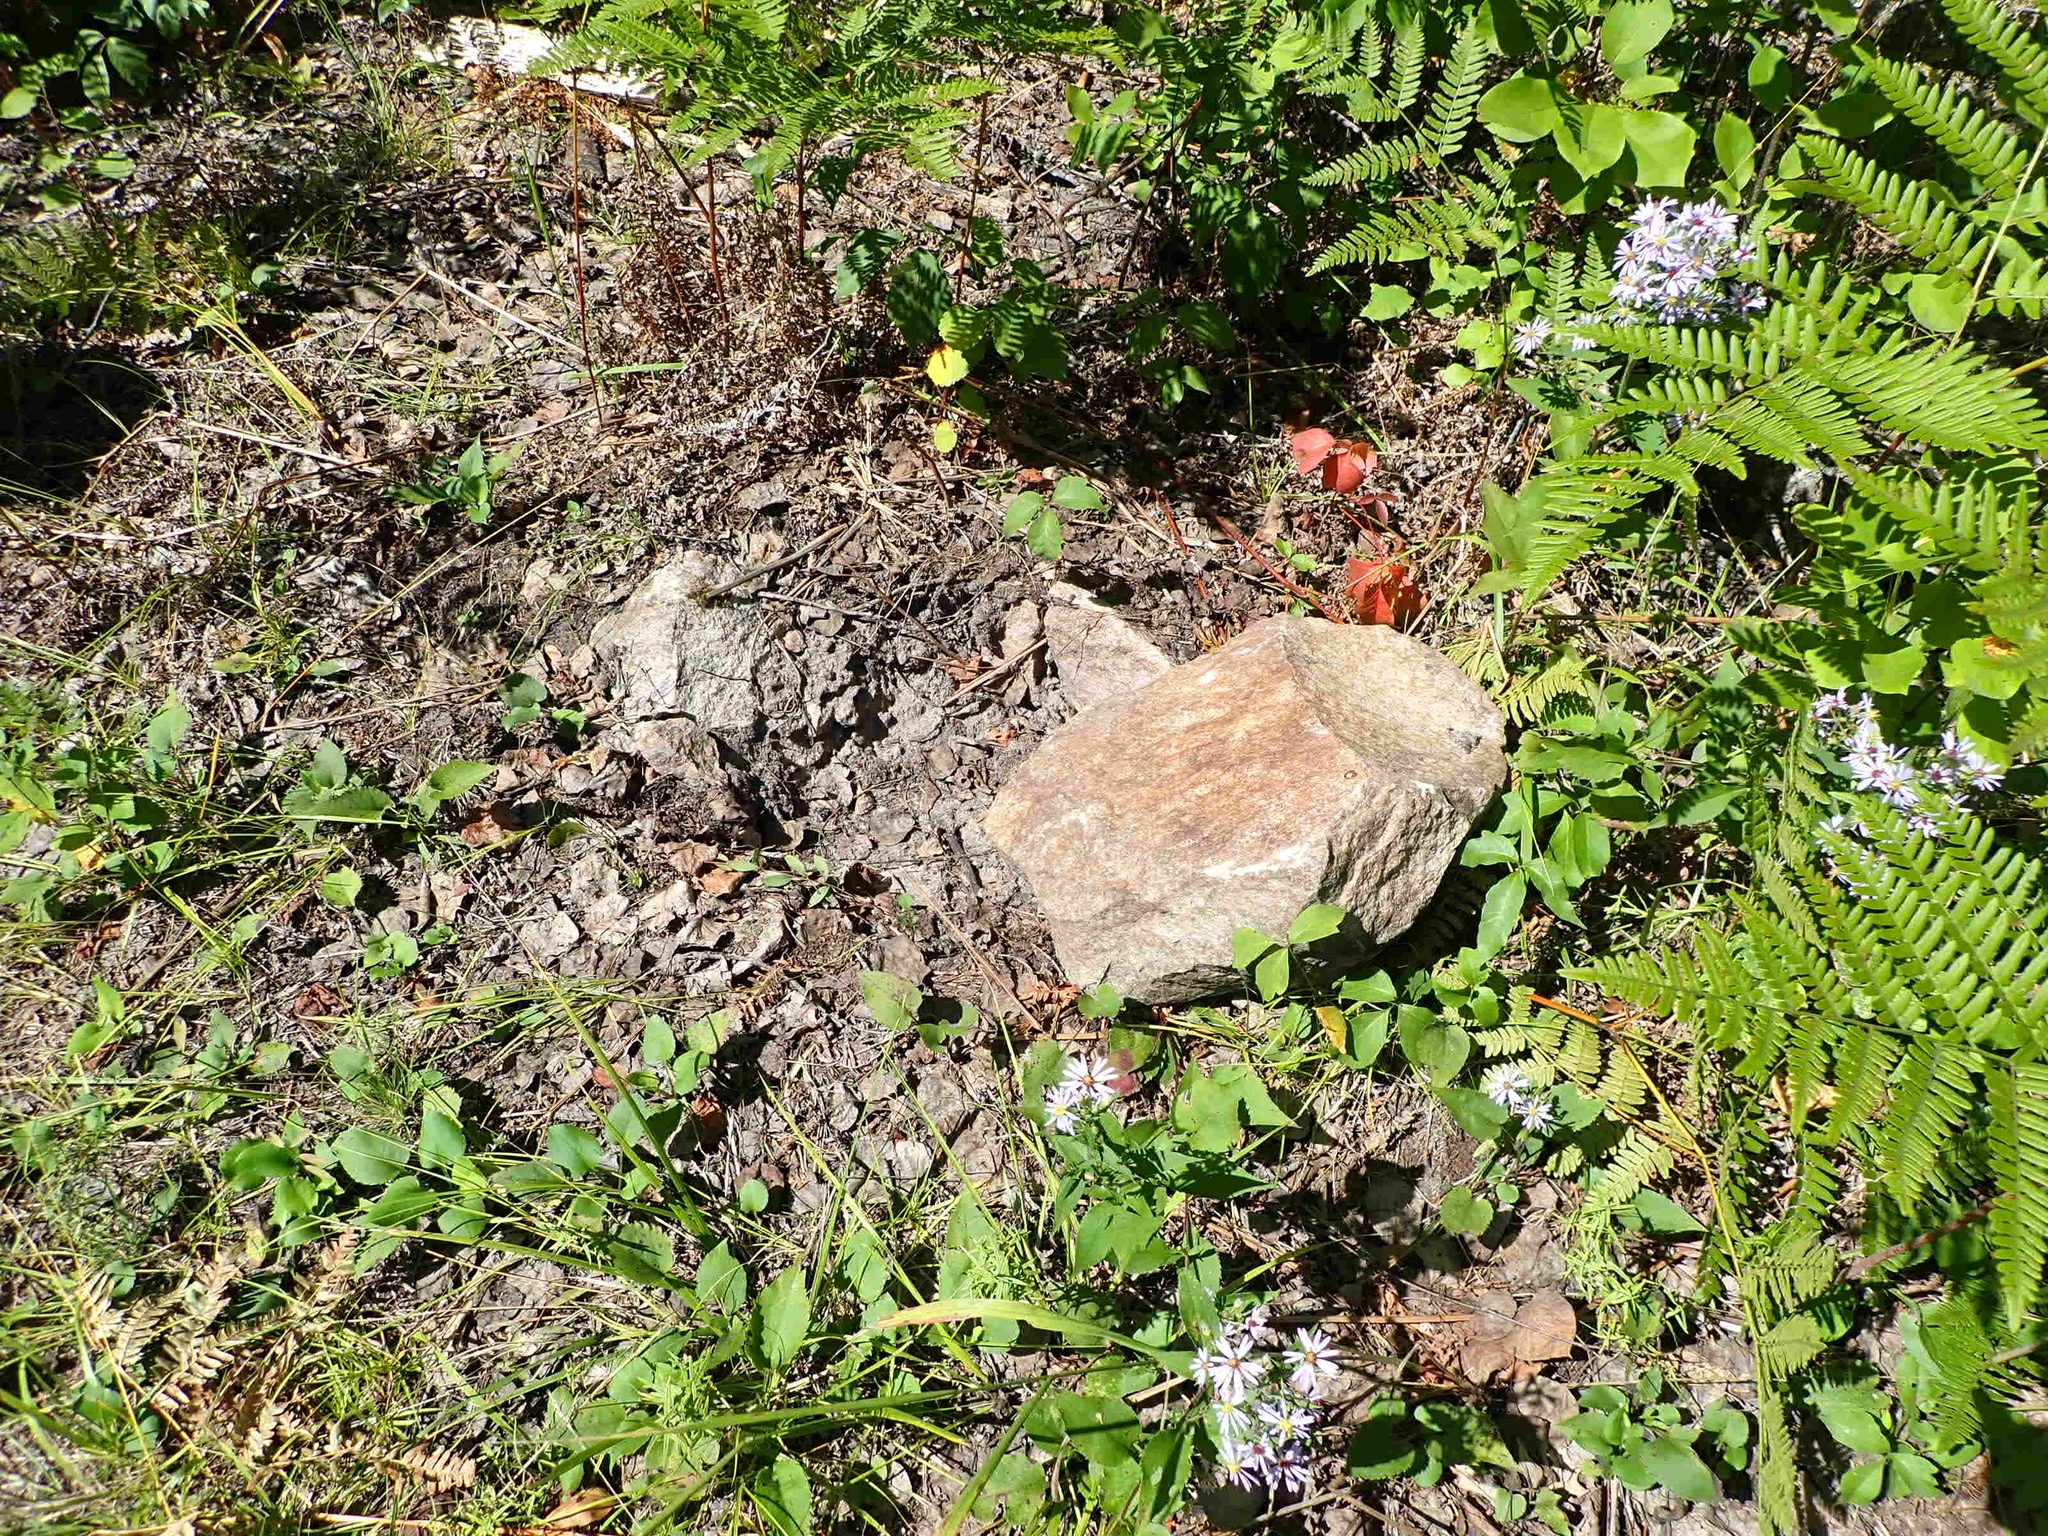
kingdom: Animalia
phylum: Chordata
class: Mammalia
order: Carnivora
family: Ursidae
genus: Ursus
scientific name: Ursus americanus
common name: American black bear
